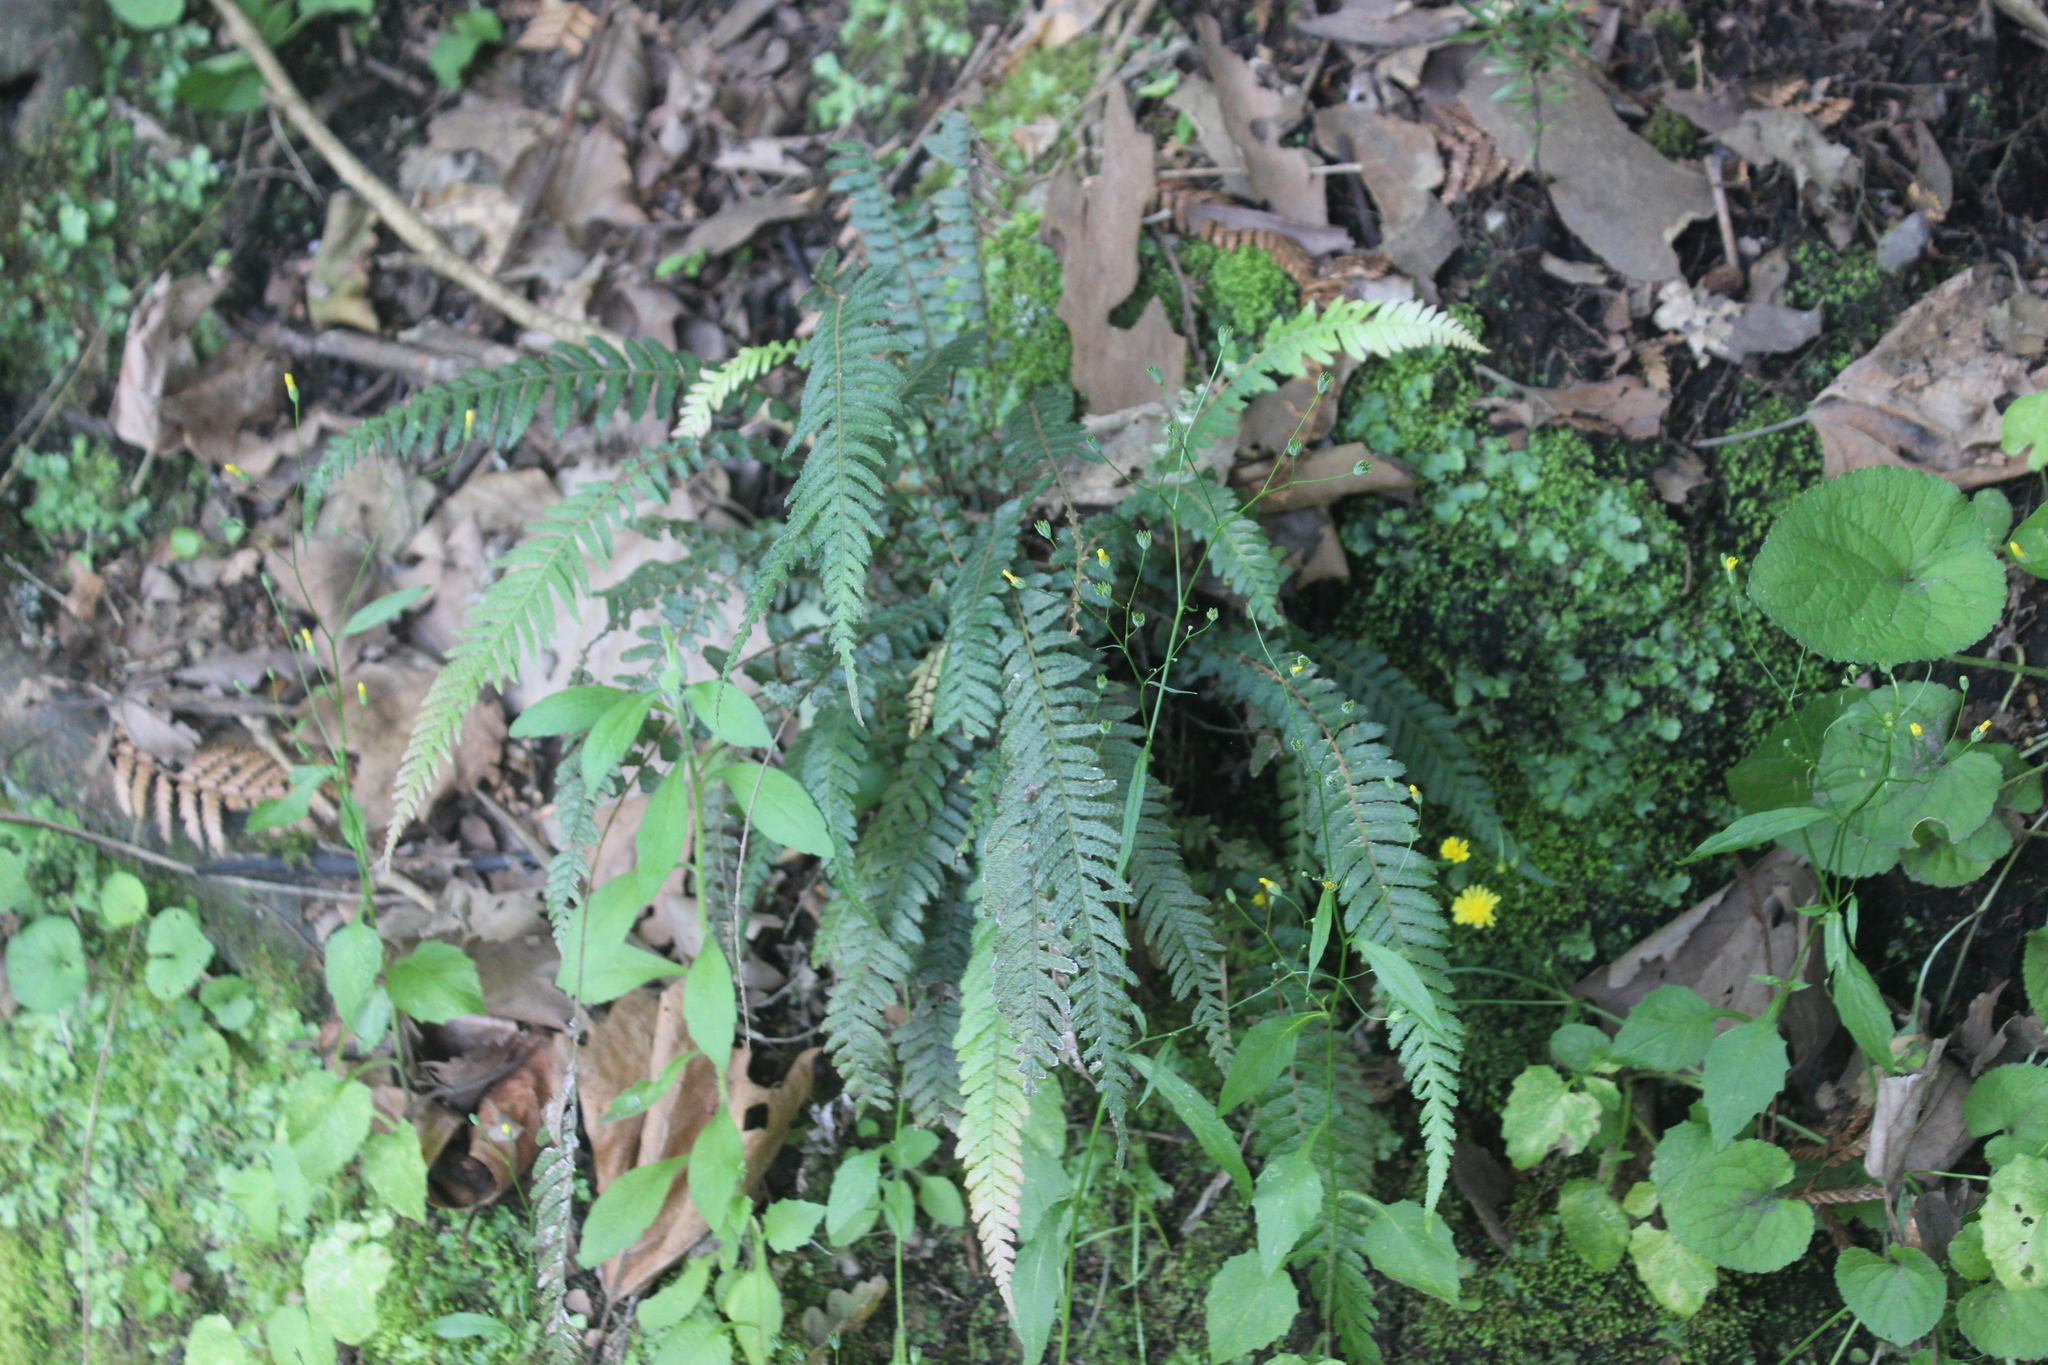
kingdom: Plantae
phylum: Tracheophyta
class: Polypodiopsida
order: Polypodiales
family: Blechnaceae
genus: Doodia
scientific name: Doodia australis
